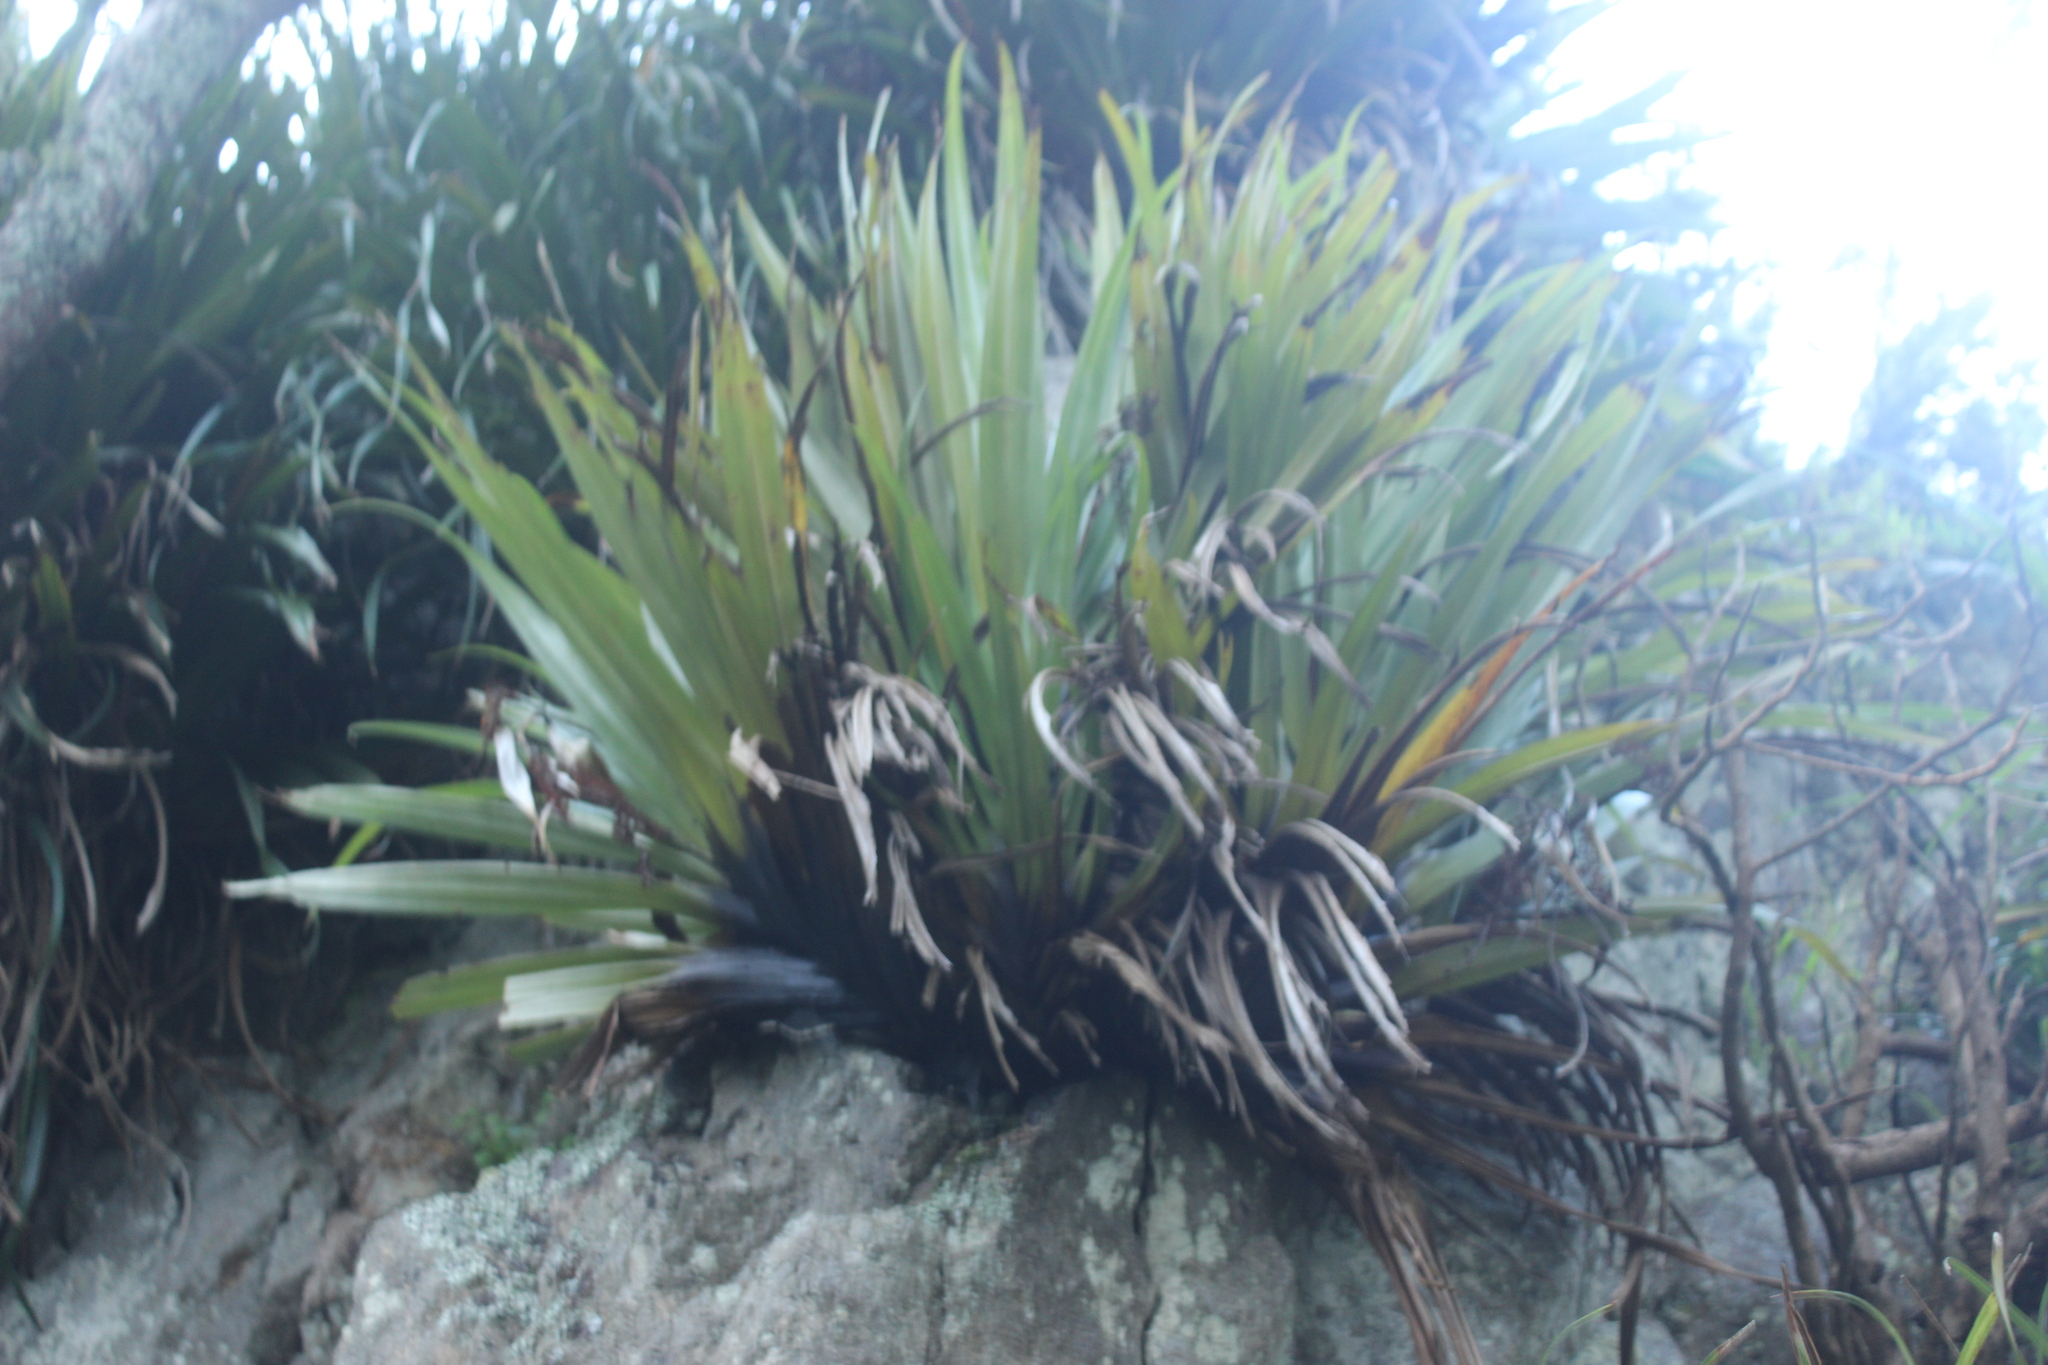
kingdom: Plantae
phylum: Tracheophyta
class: Liliopsida
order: Asparagales
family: Asteliaceae
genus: Astelia
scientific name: Astelia hastata
